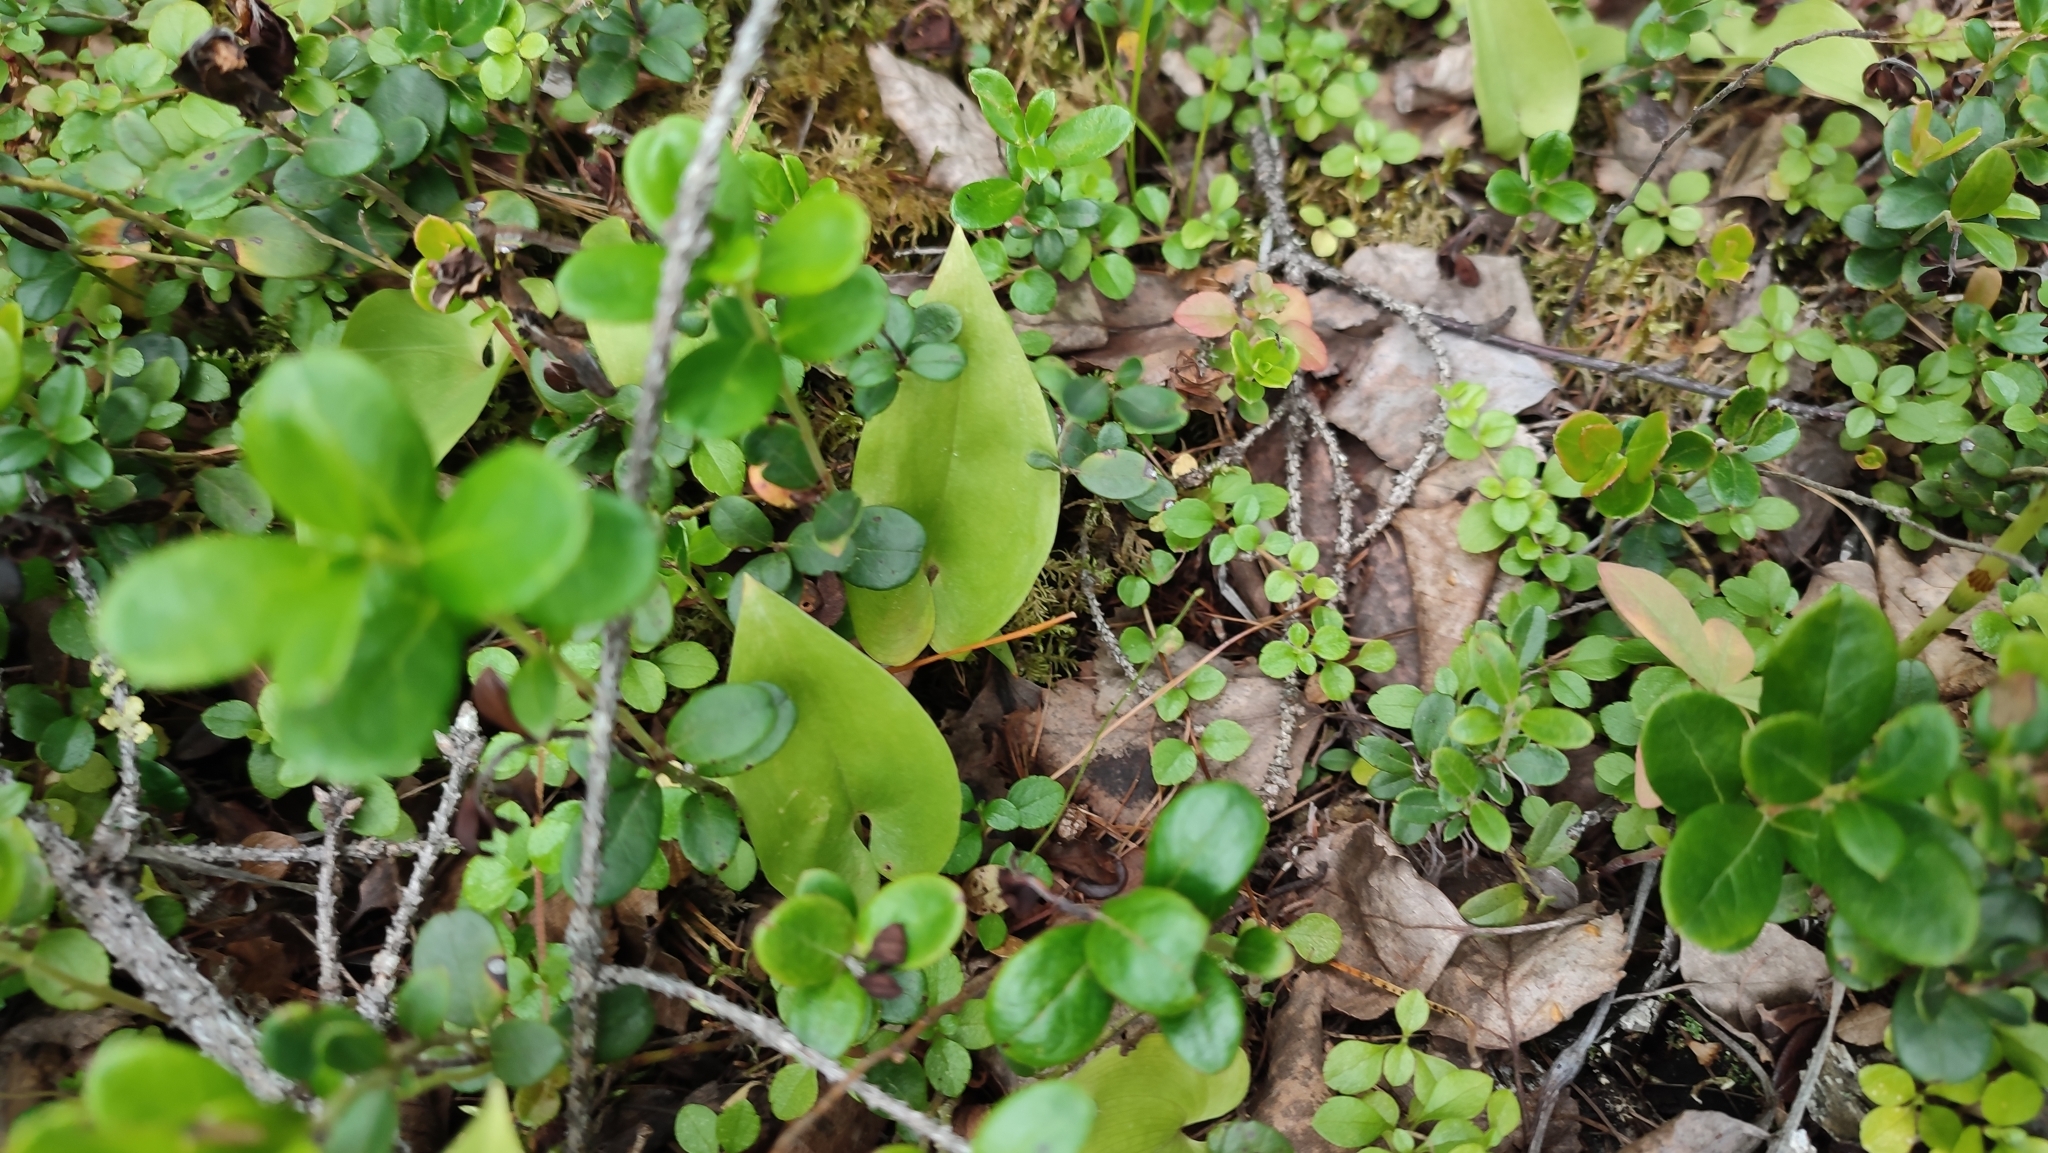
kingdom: Plantae
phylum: Tracheophyta
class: Liliopsida
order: Asparagales
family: Asparagaceae
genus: Maianthemum
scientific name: Maianthemum bifolium
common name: May lily
